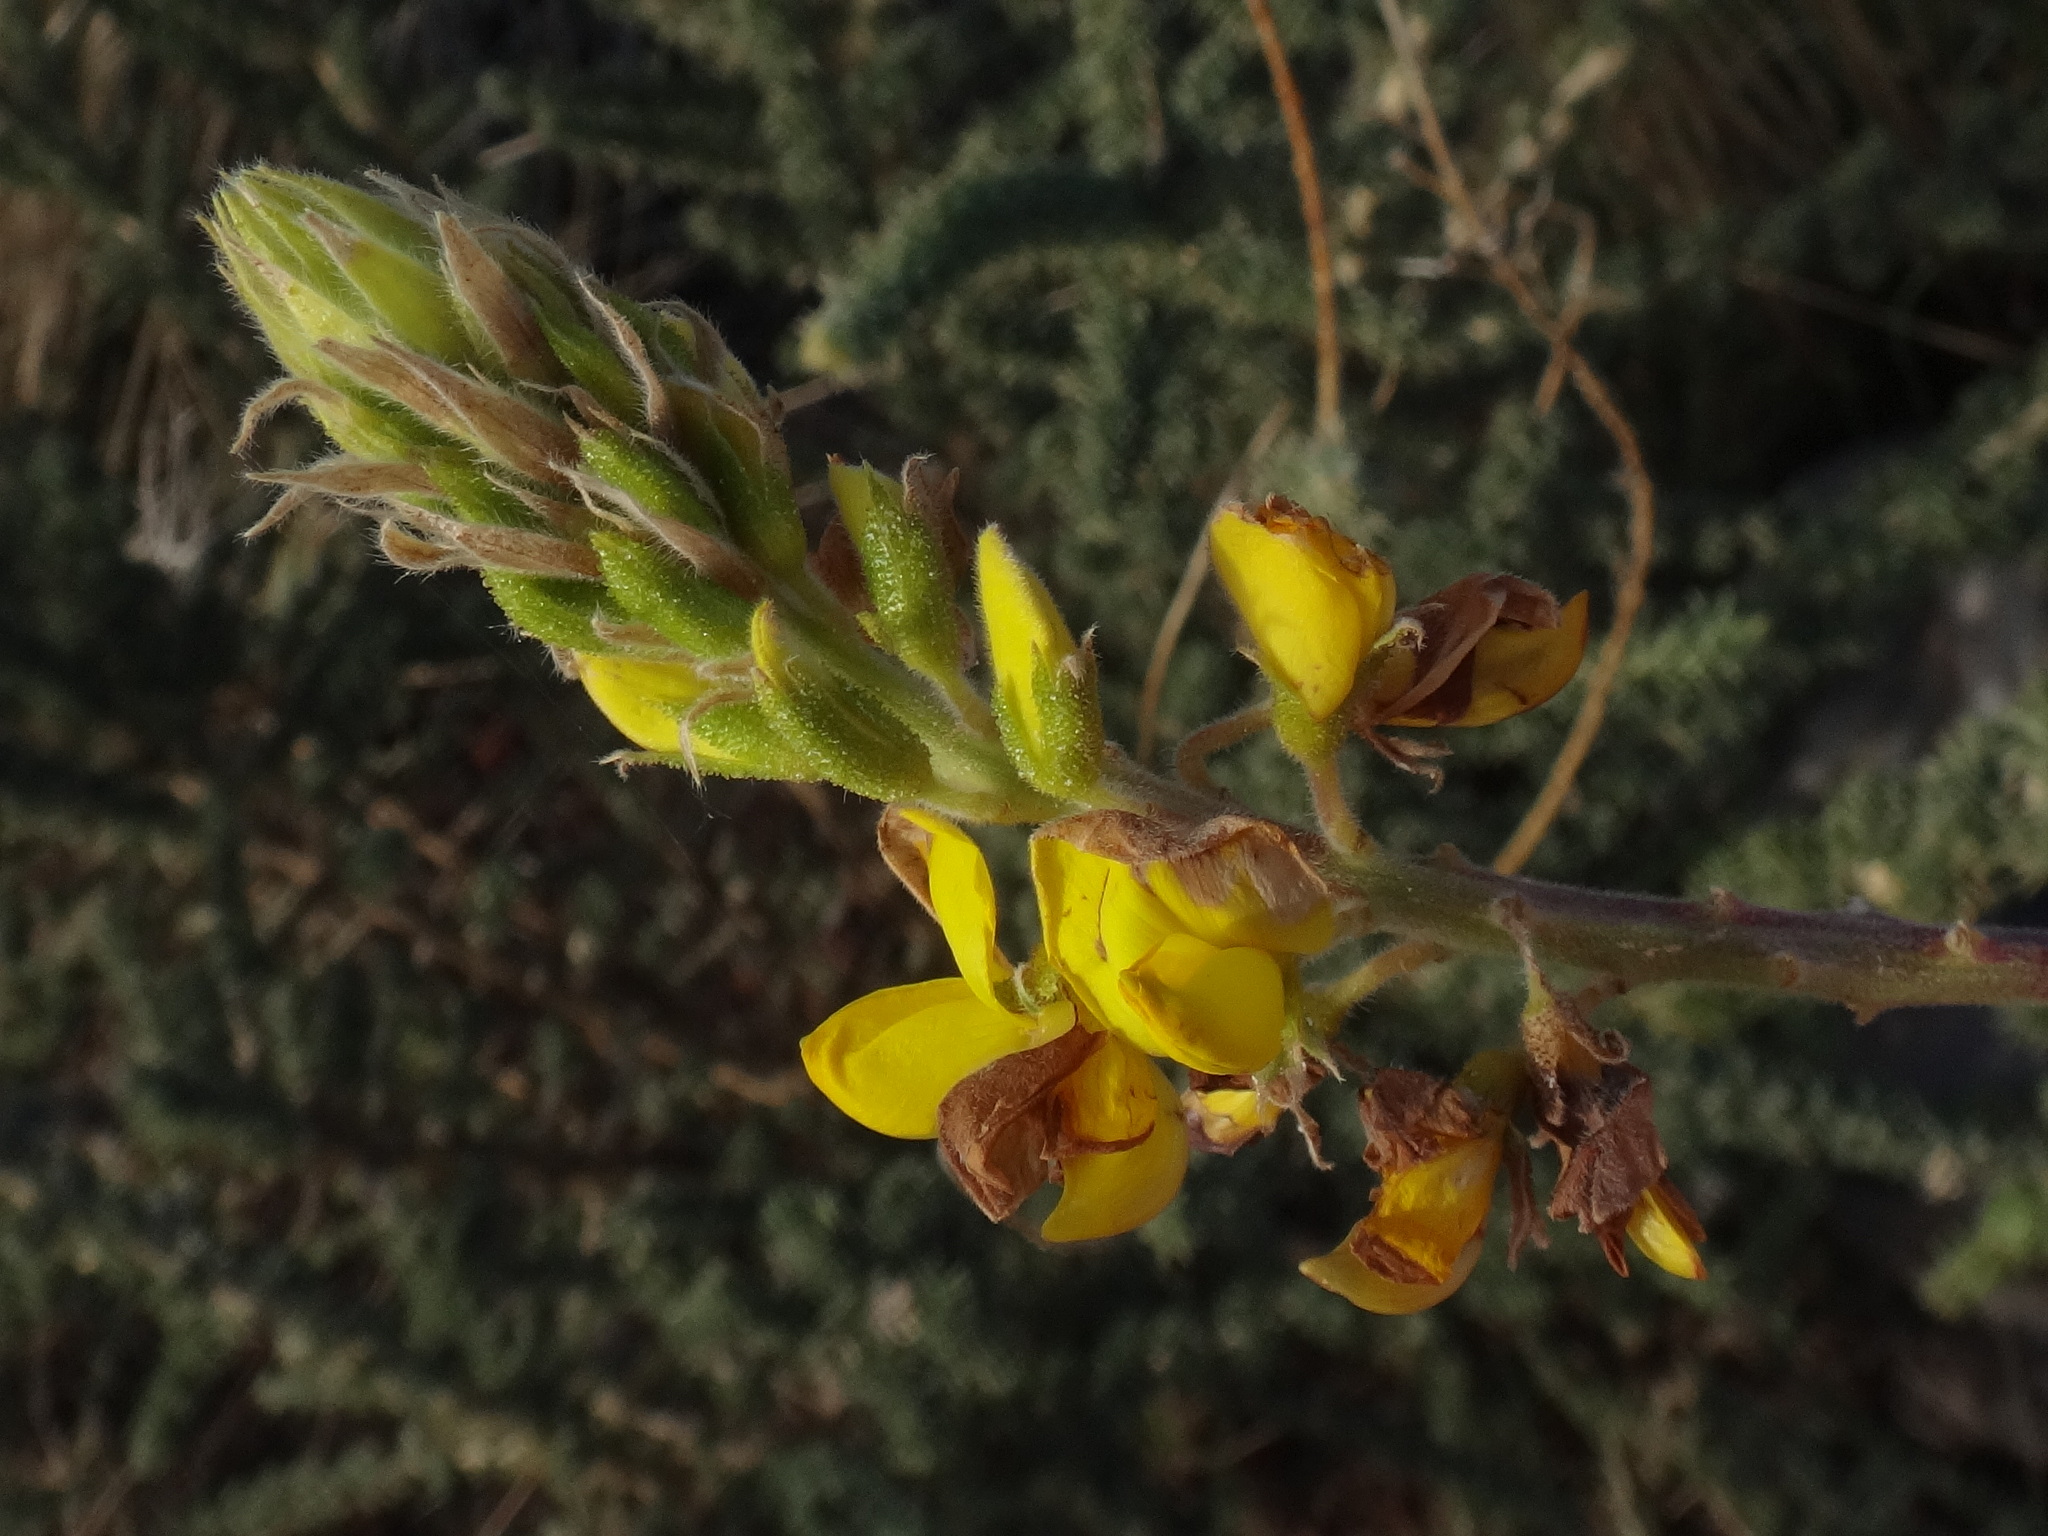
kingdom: Plantae
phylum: Tracheophyta
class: Magnoliopsida
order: Fabales
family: Fabaceae
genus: Adenocarpus
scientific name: Adenocarpus viscosus
